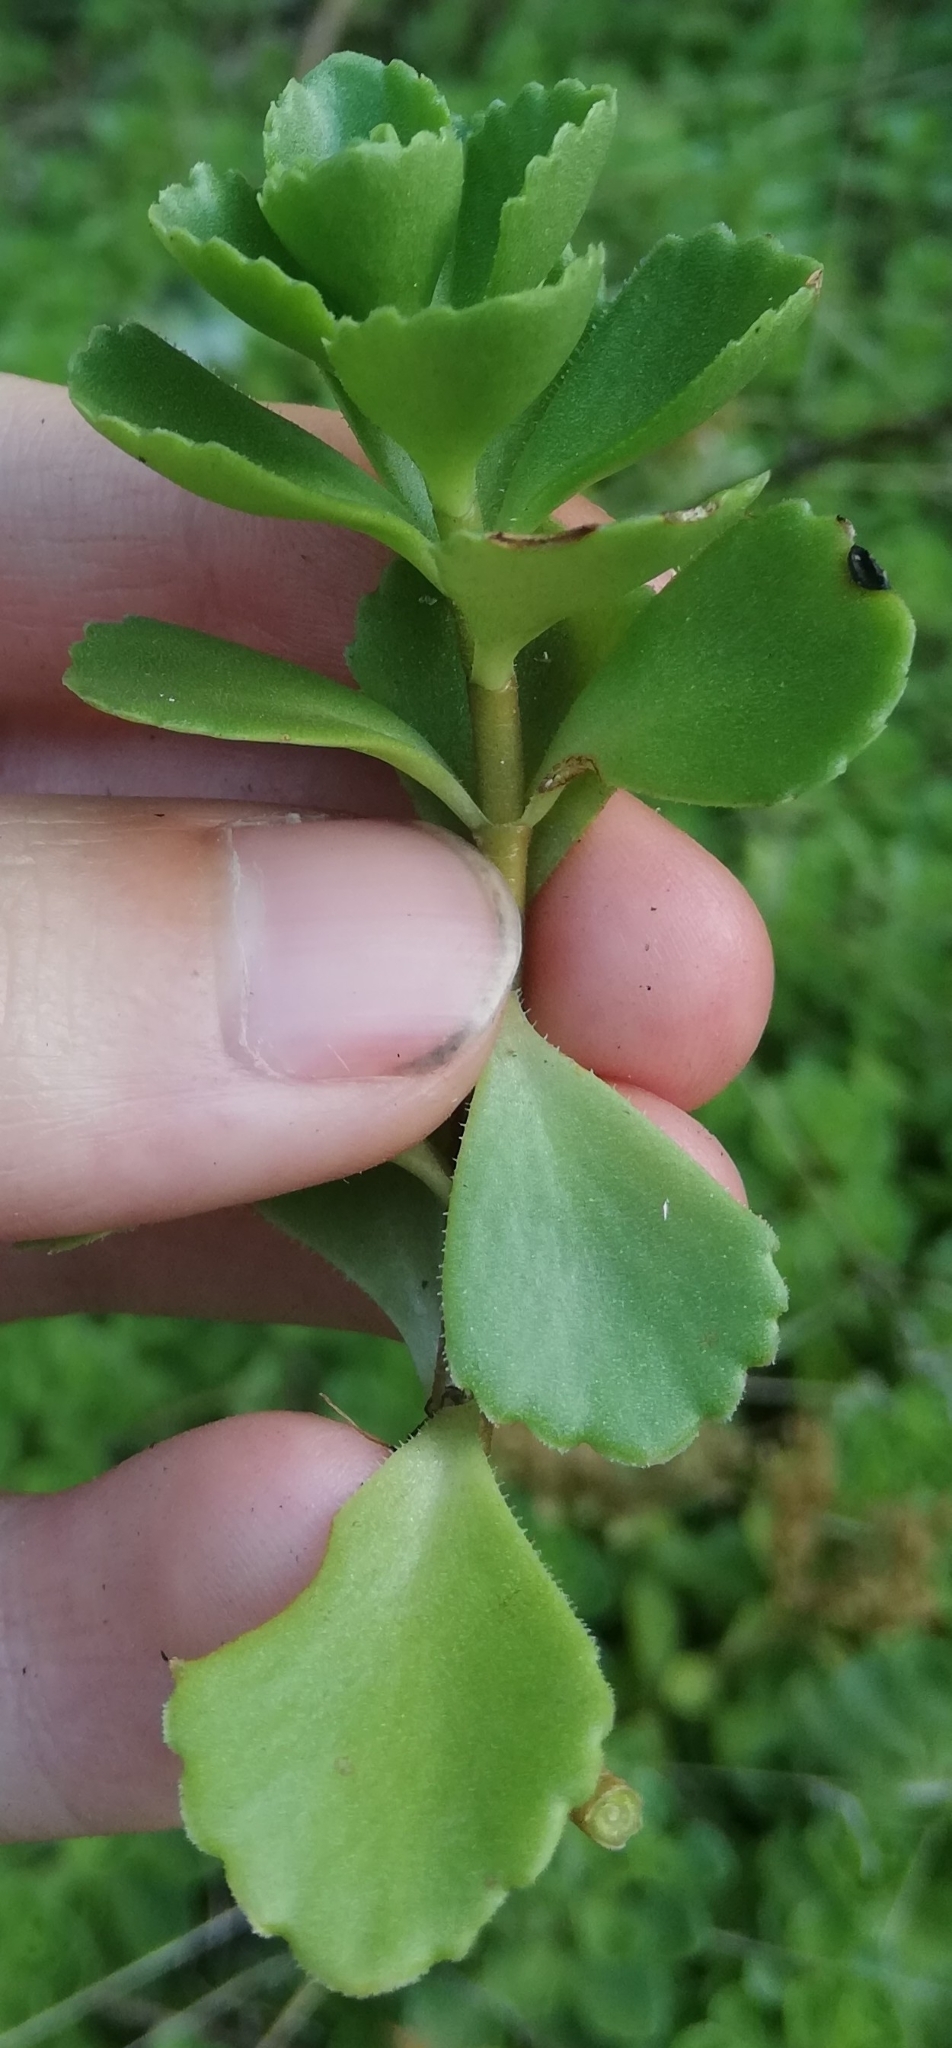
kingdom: Plantae
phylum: Tracheophyta
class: Magnoliopsida
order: Saxifragales
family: Crassulaceae
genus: Phedimus
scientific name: Phedimus spurius
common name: Caucasian stonecrop
